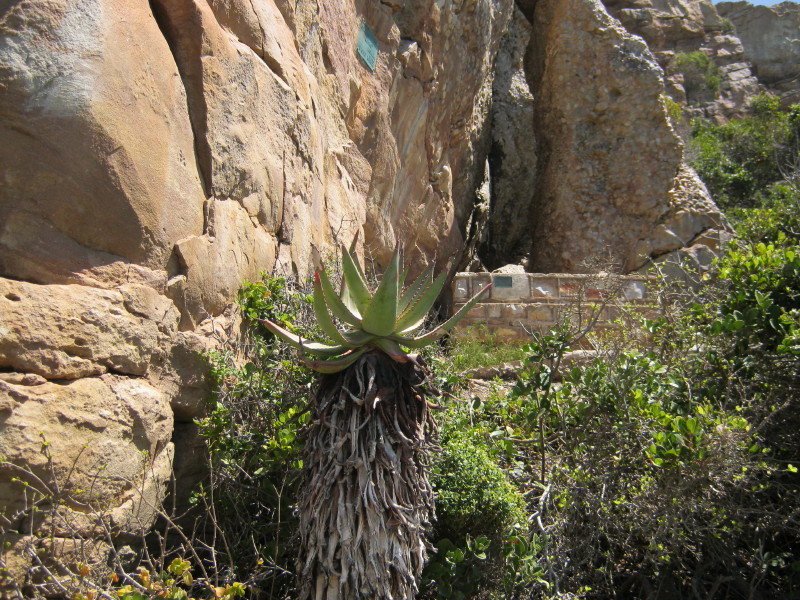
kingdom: Plantae
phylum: Tracheophyta
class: Liliopsida
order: Asparagales
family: Asphodelaceae
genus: Aloe
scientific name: Aloe ferox
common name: Bitter aloe
